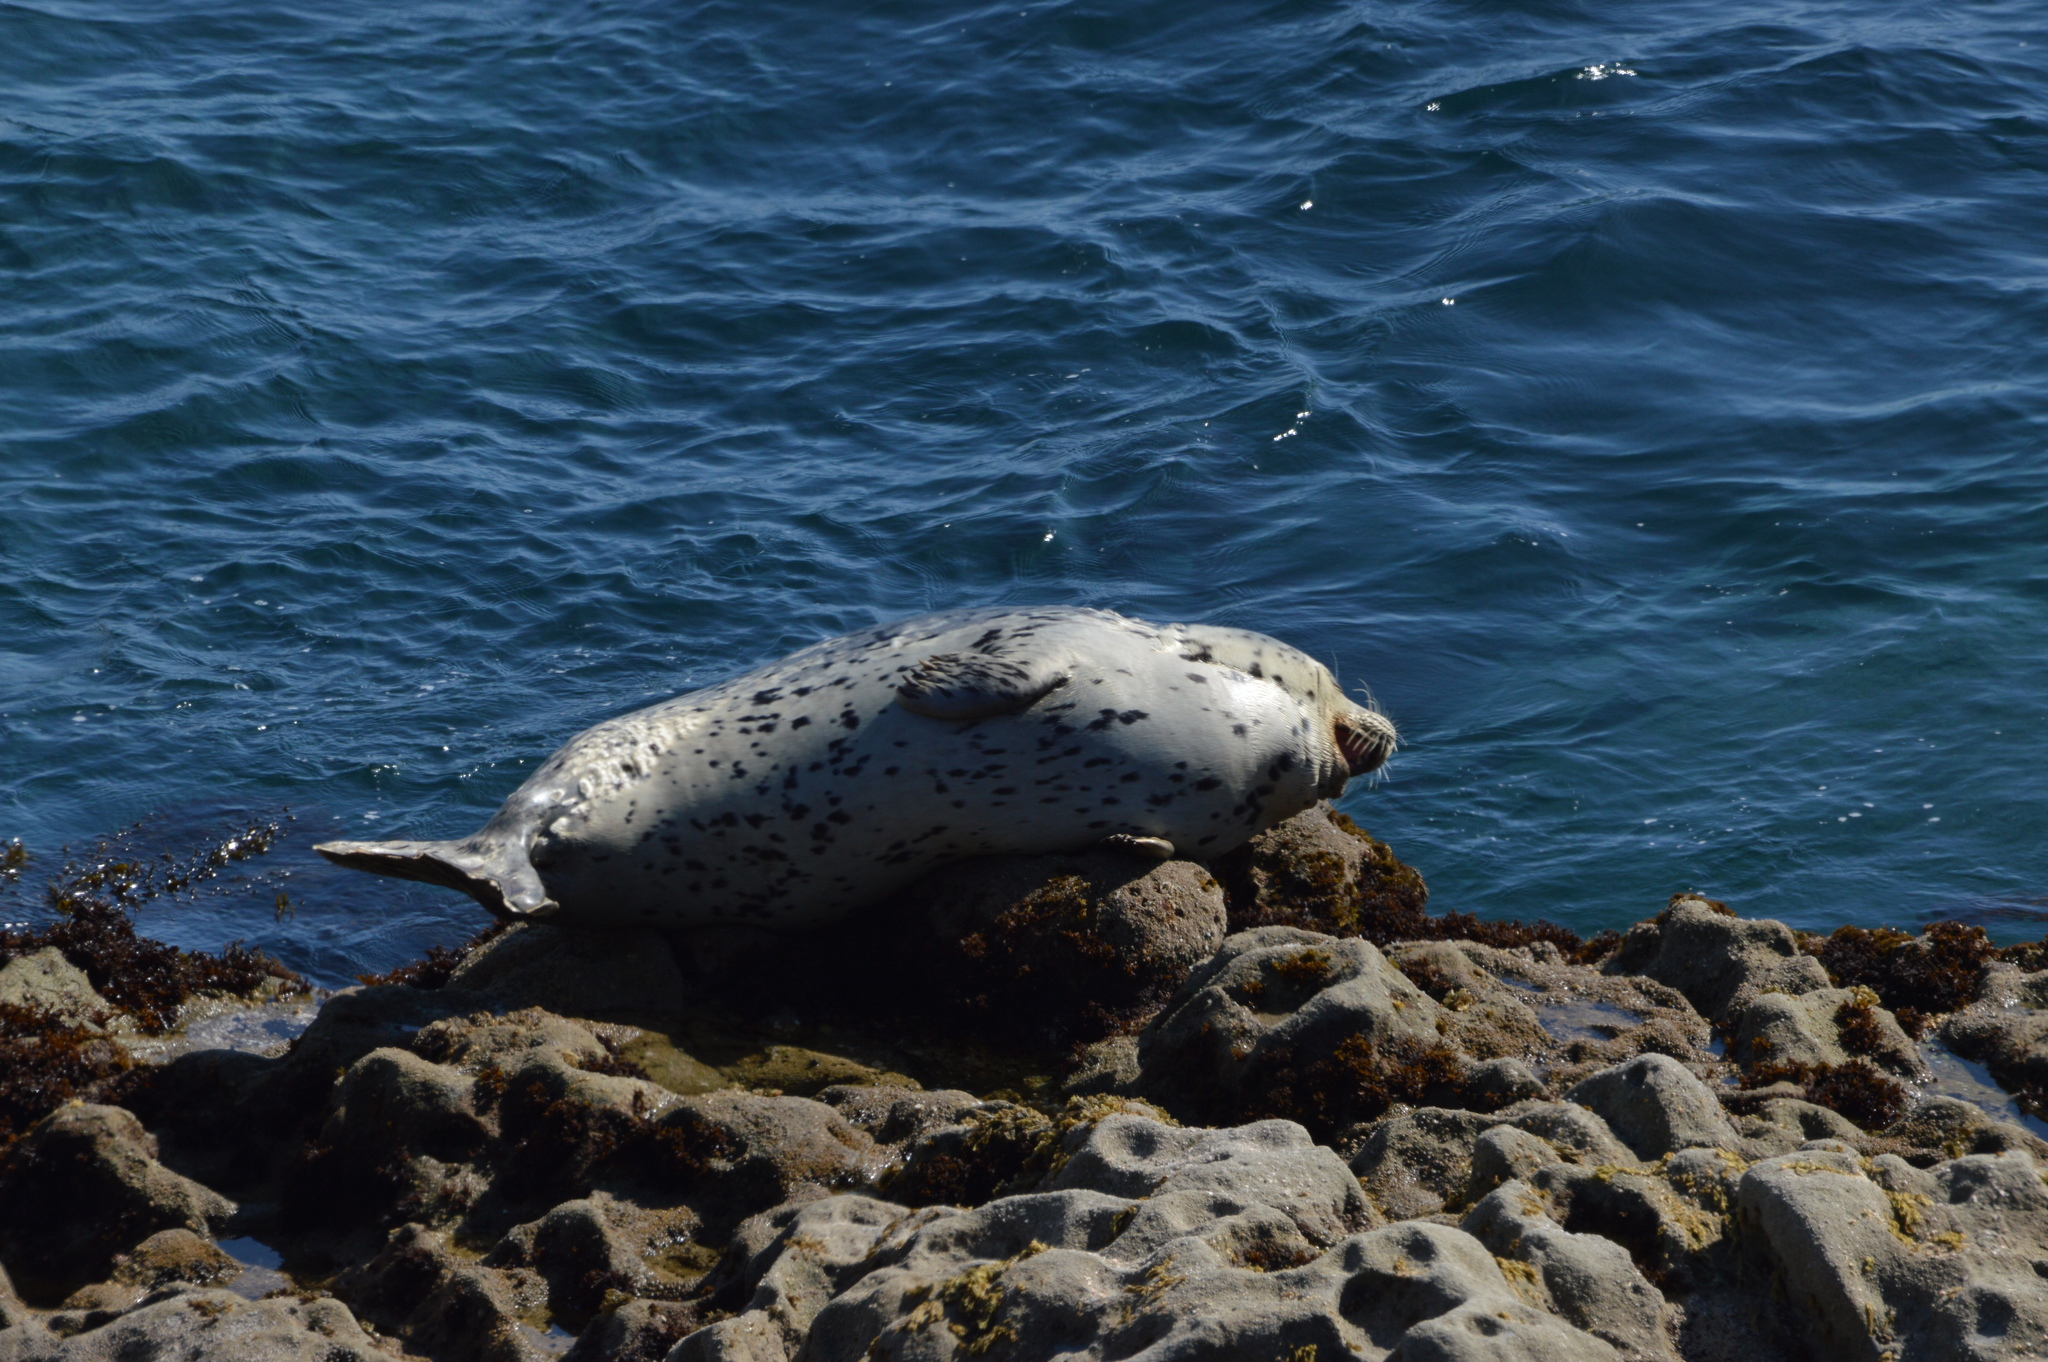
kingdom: Animalia
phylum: Chordata
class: Mammalia
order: Carnivora
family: Phocidae
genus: Phoca
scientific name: Phoca vitulina
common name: Harbor seal
